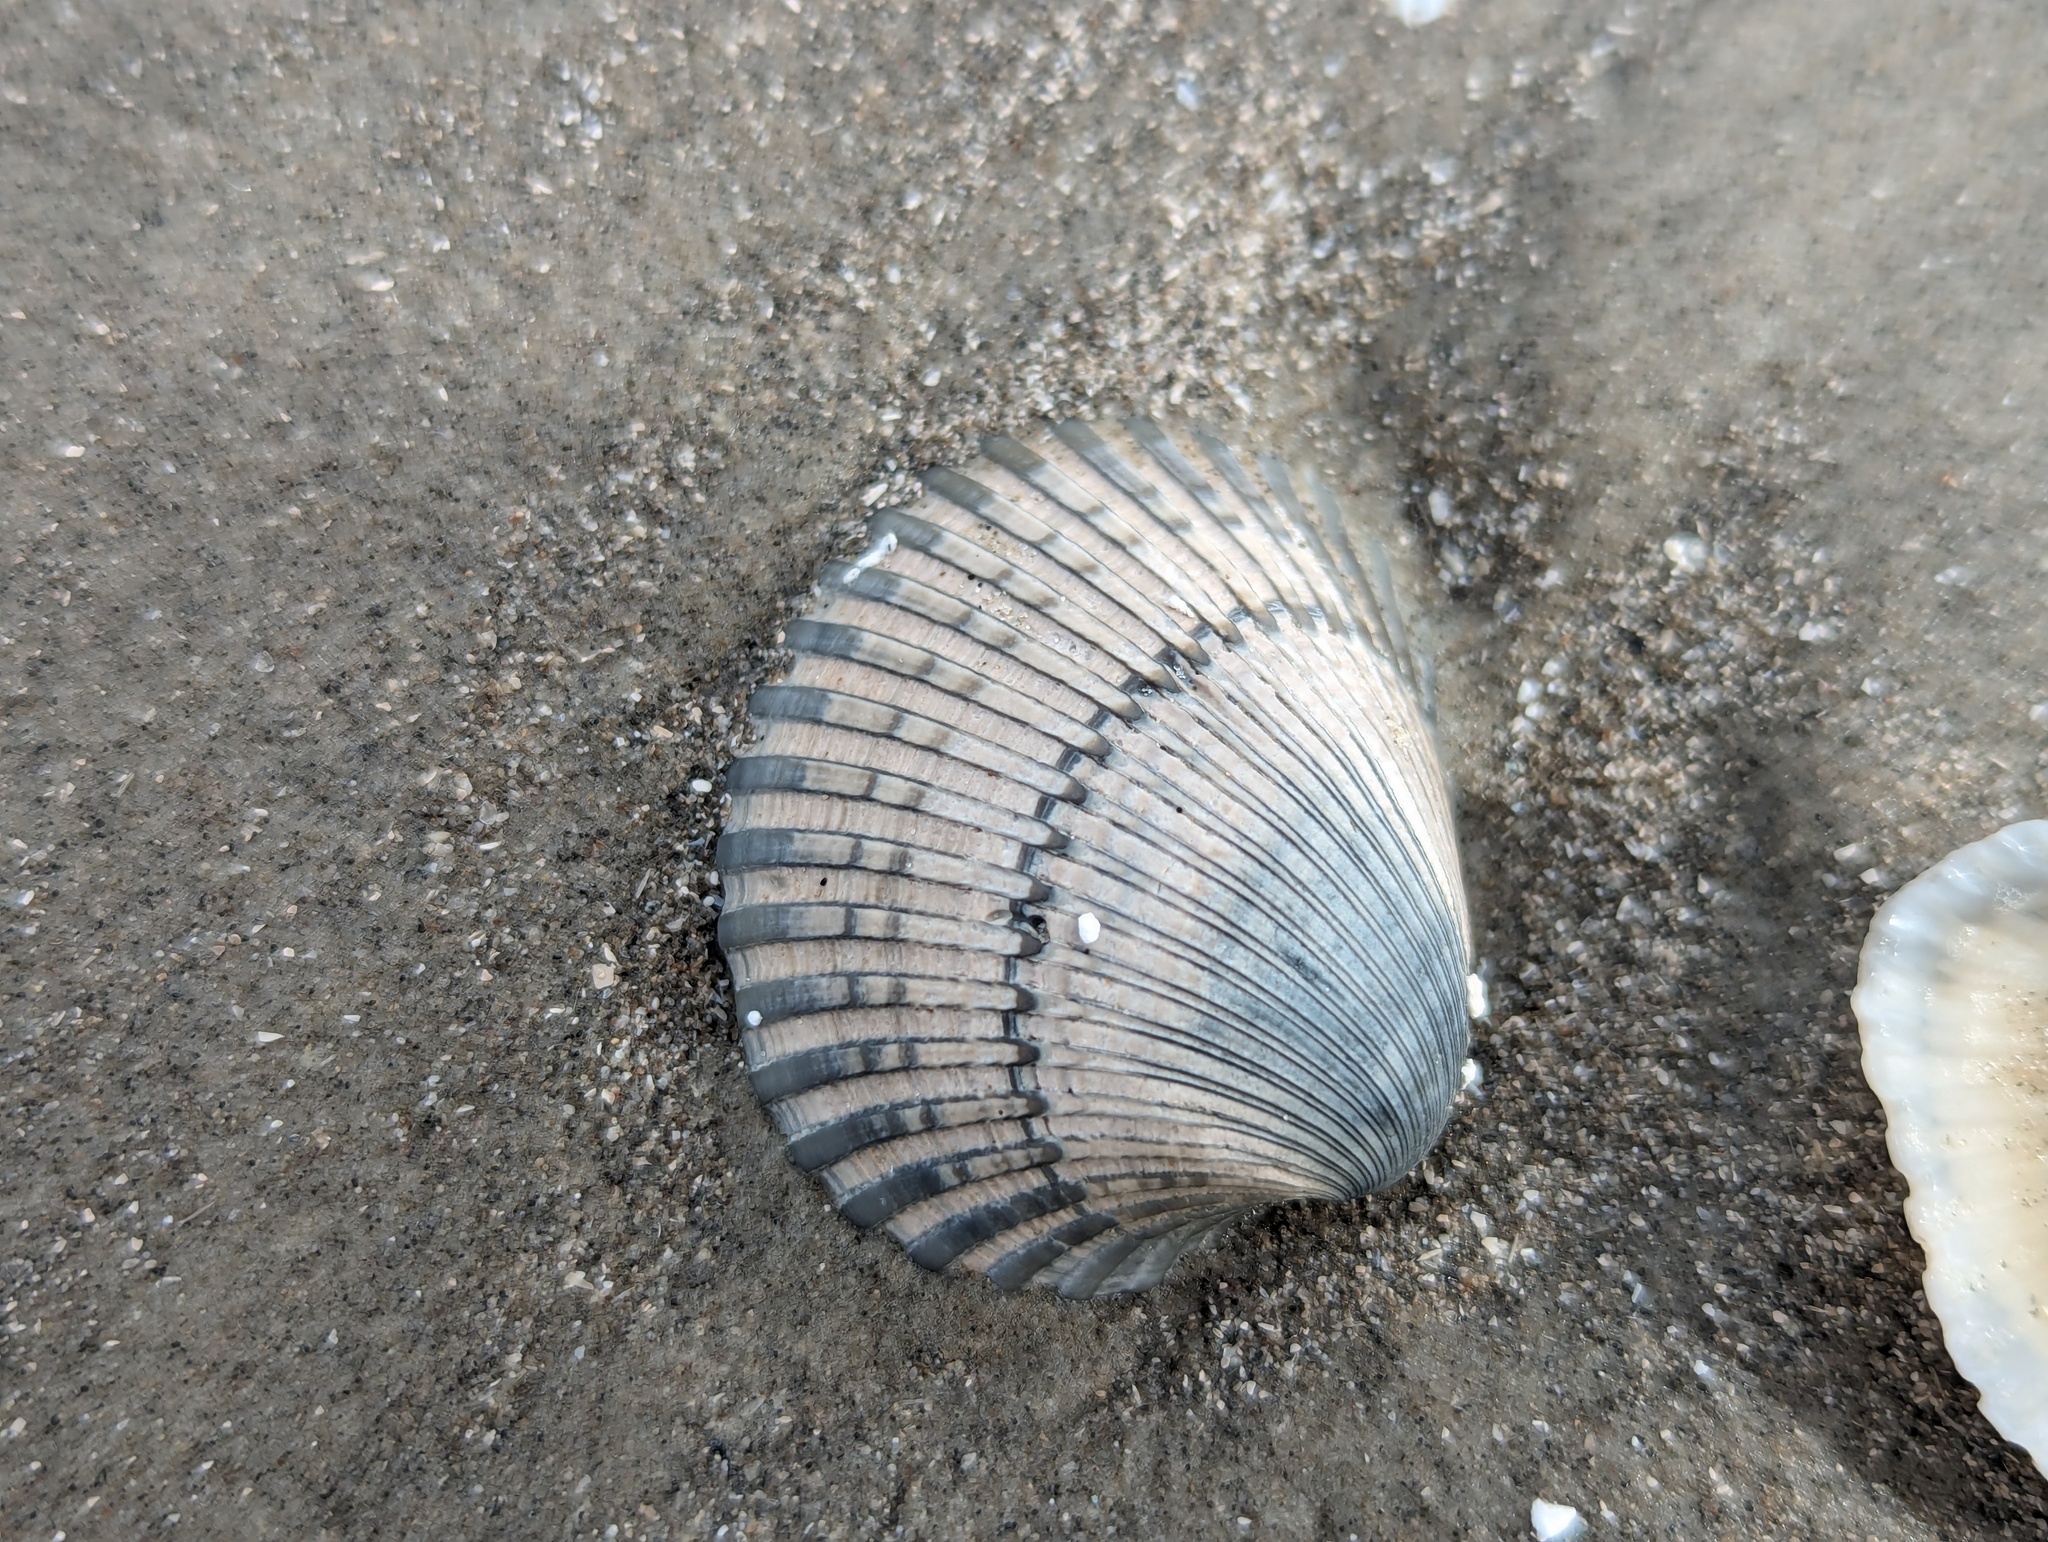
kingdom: Animalia
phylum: Mollusca
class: Bivalvia
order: Arcida
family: Arcidae
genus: Lunarca
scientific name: Lunarca ovalis
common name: Blood ark
